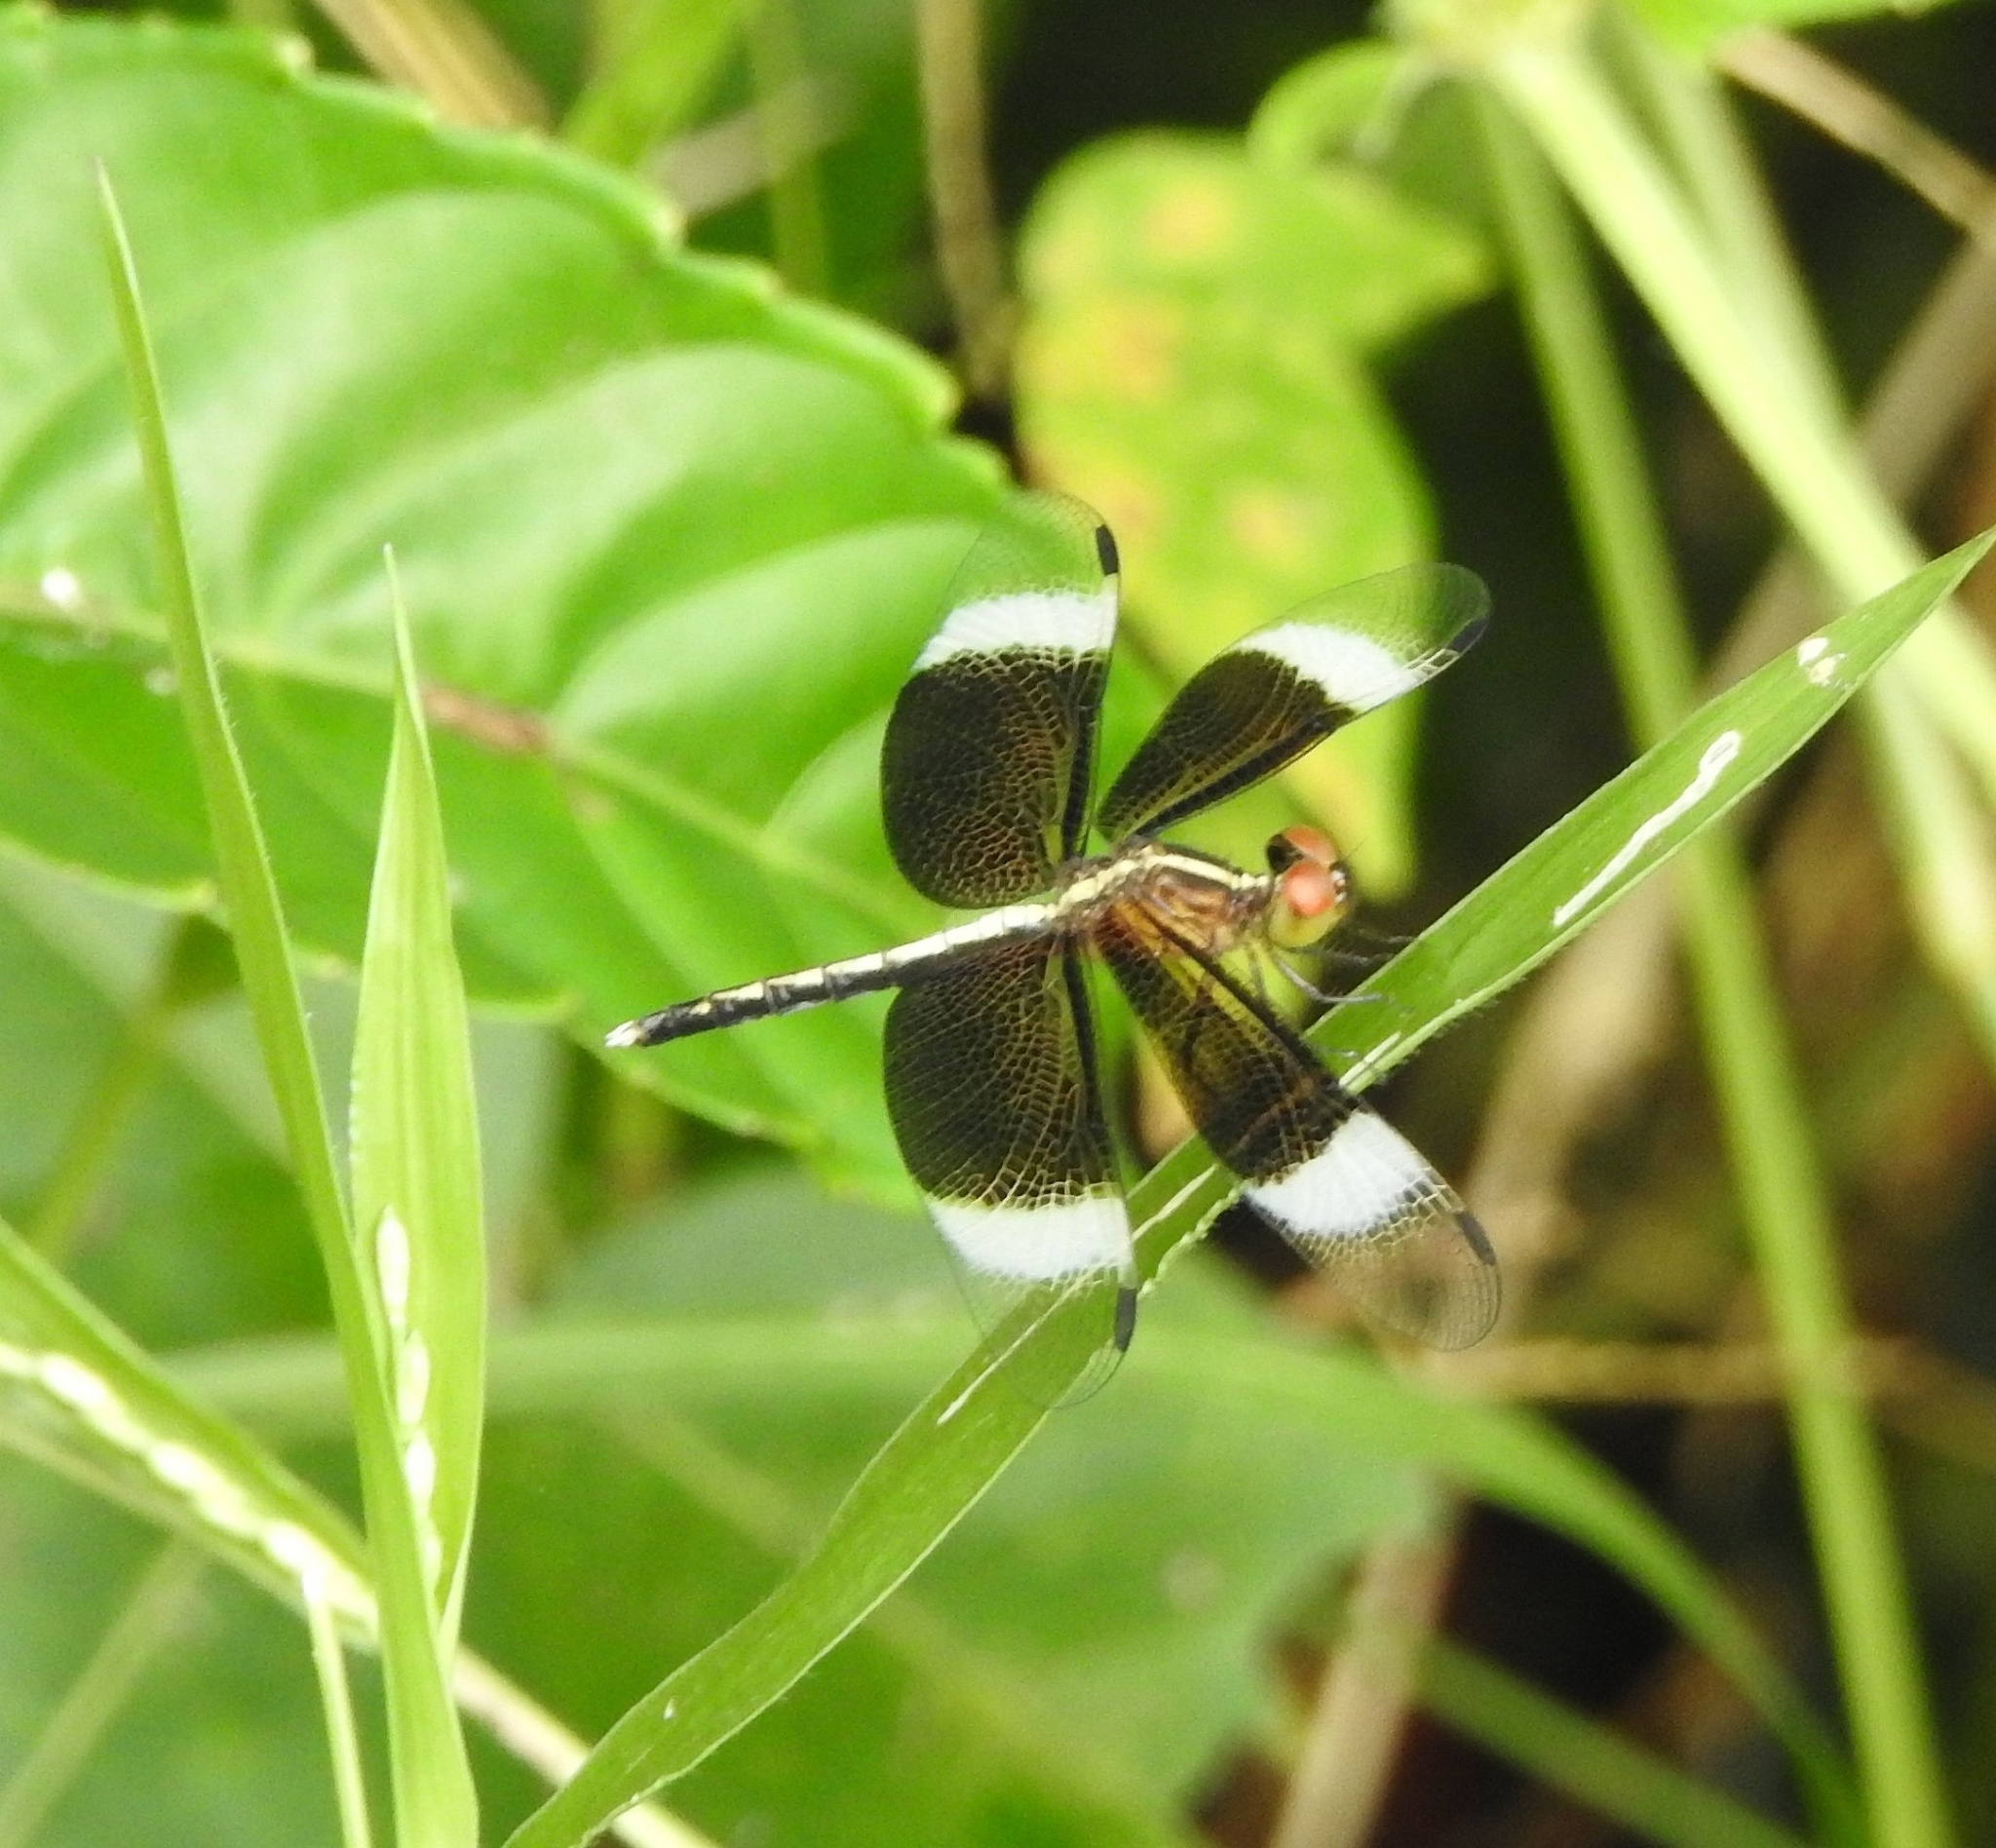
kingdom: Animalia
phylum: Arthropoda
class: Insecta
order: Odonata
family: Libellulidae
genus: Neurothemis
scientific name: Neurothemis tullia
